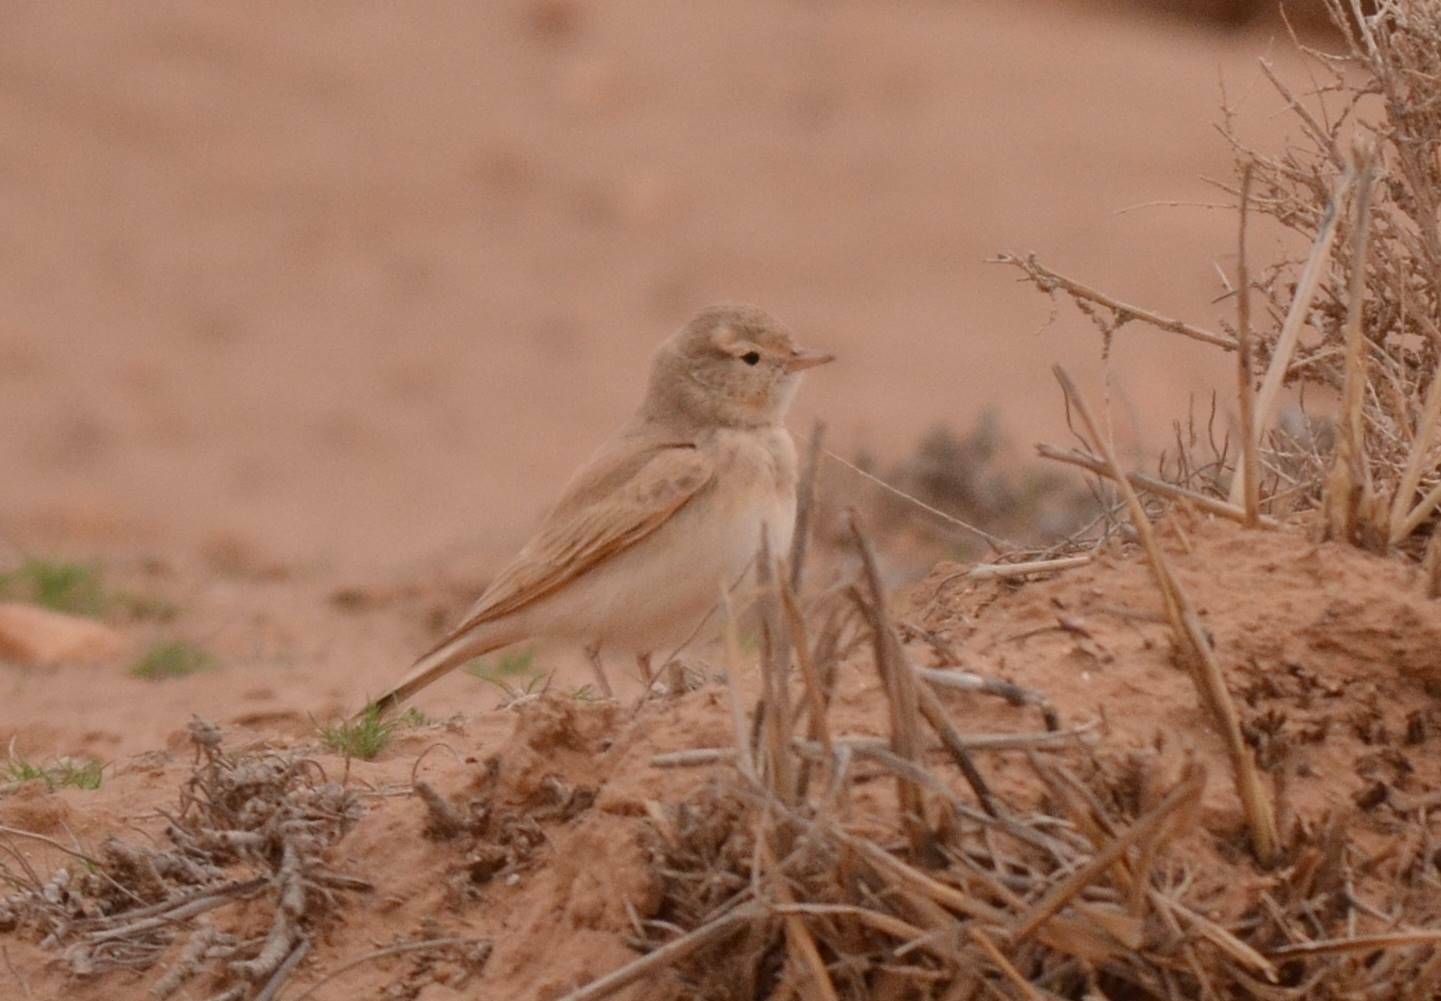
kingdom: Animalia
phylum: Chordata
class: Aves
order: Passeriformes
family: Alaudidae
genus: Ammomanes
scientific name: Ammomanes cinctura
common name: Bar-tailed lark
